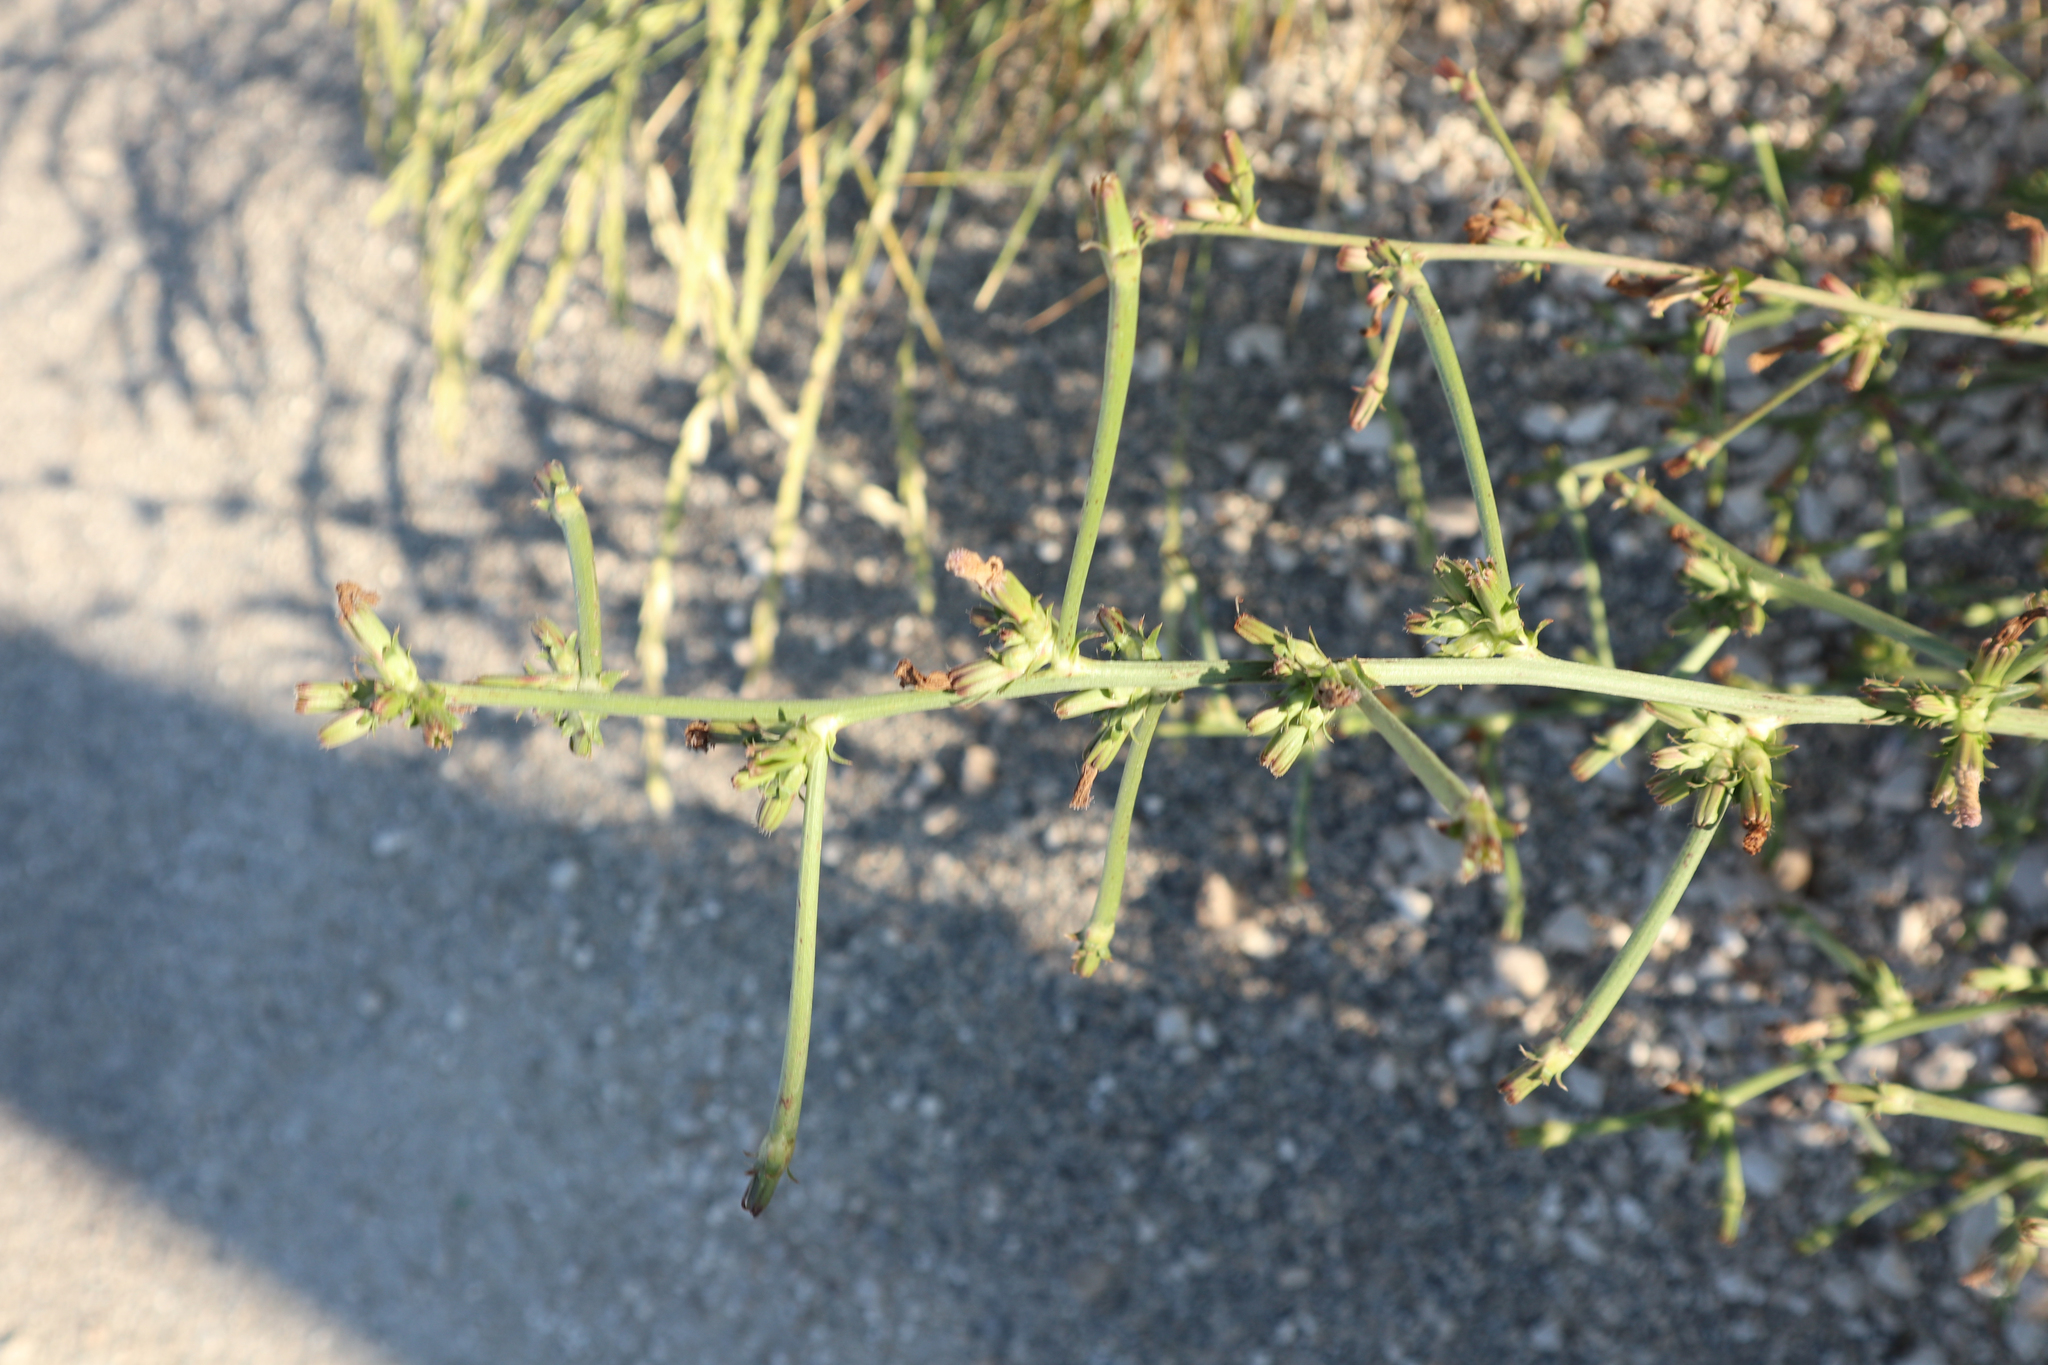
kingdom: Plantae
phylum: Tracheophyta
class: Magnoliopsida
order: Asterales
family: Asteraceae
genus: Cichorium
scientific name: Cichorium intybus
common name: Chicory
